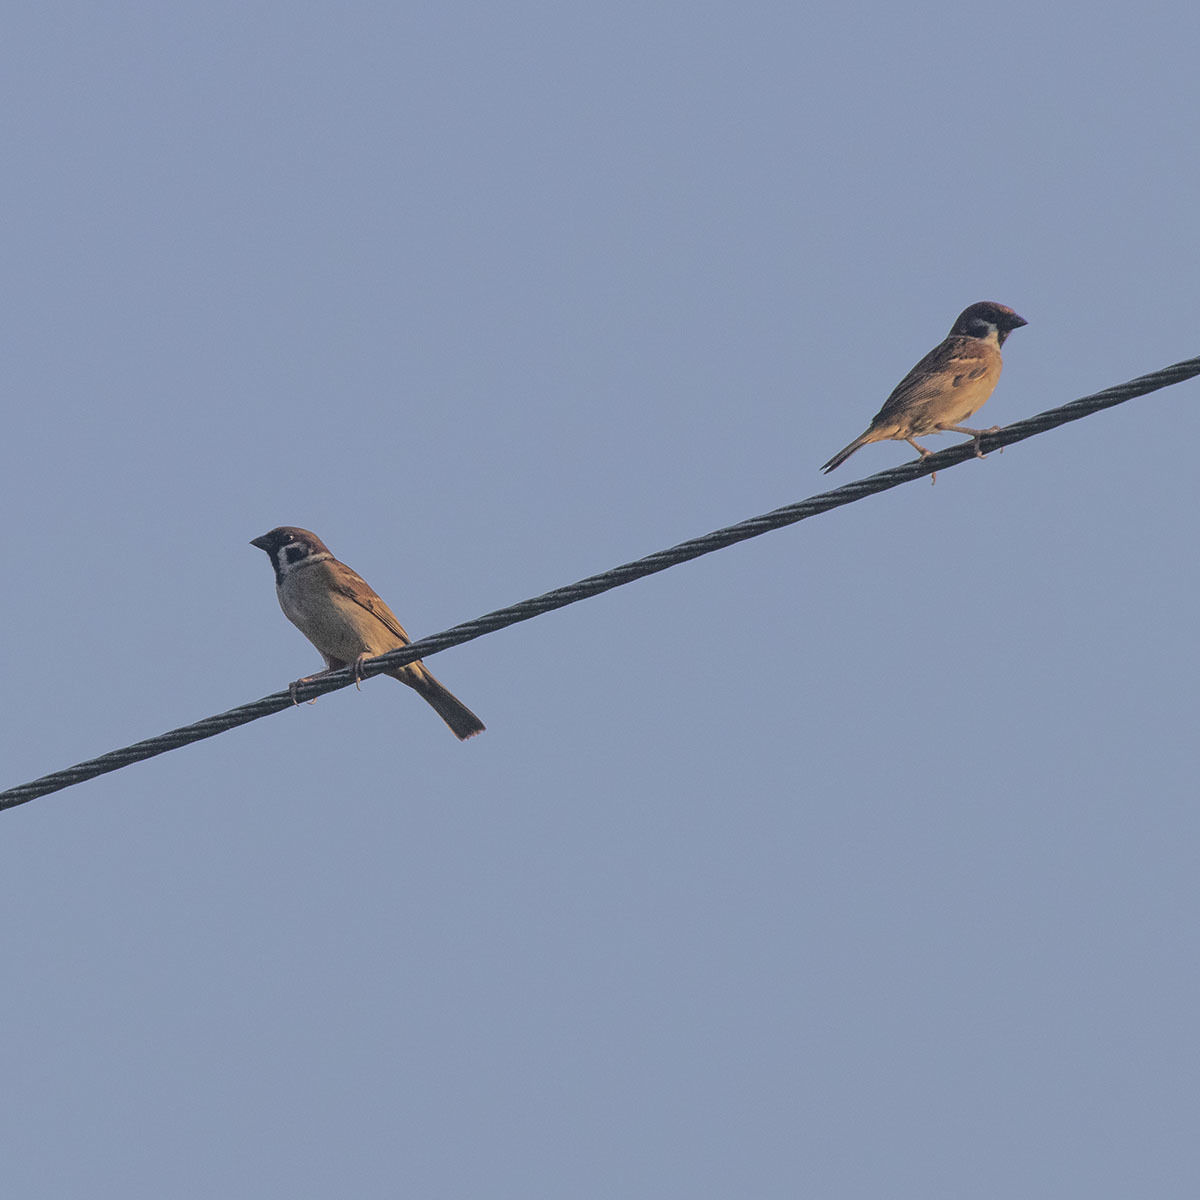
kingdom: Animalia
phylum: Chordata
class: Aves
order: Passeriformes
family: Passeridae
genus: Passer
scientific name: Passer montanus
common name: Eurasian tree sparrow
